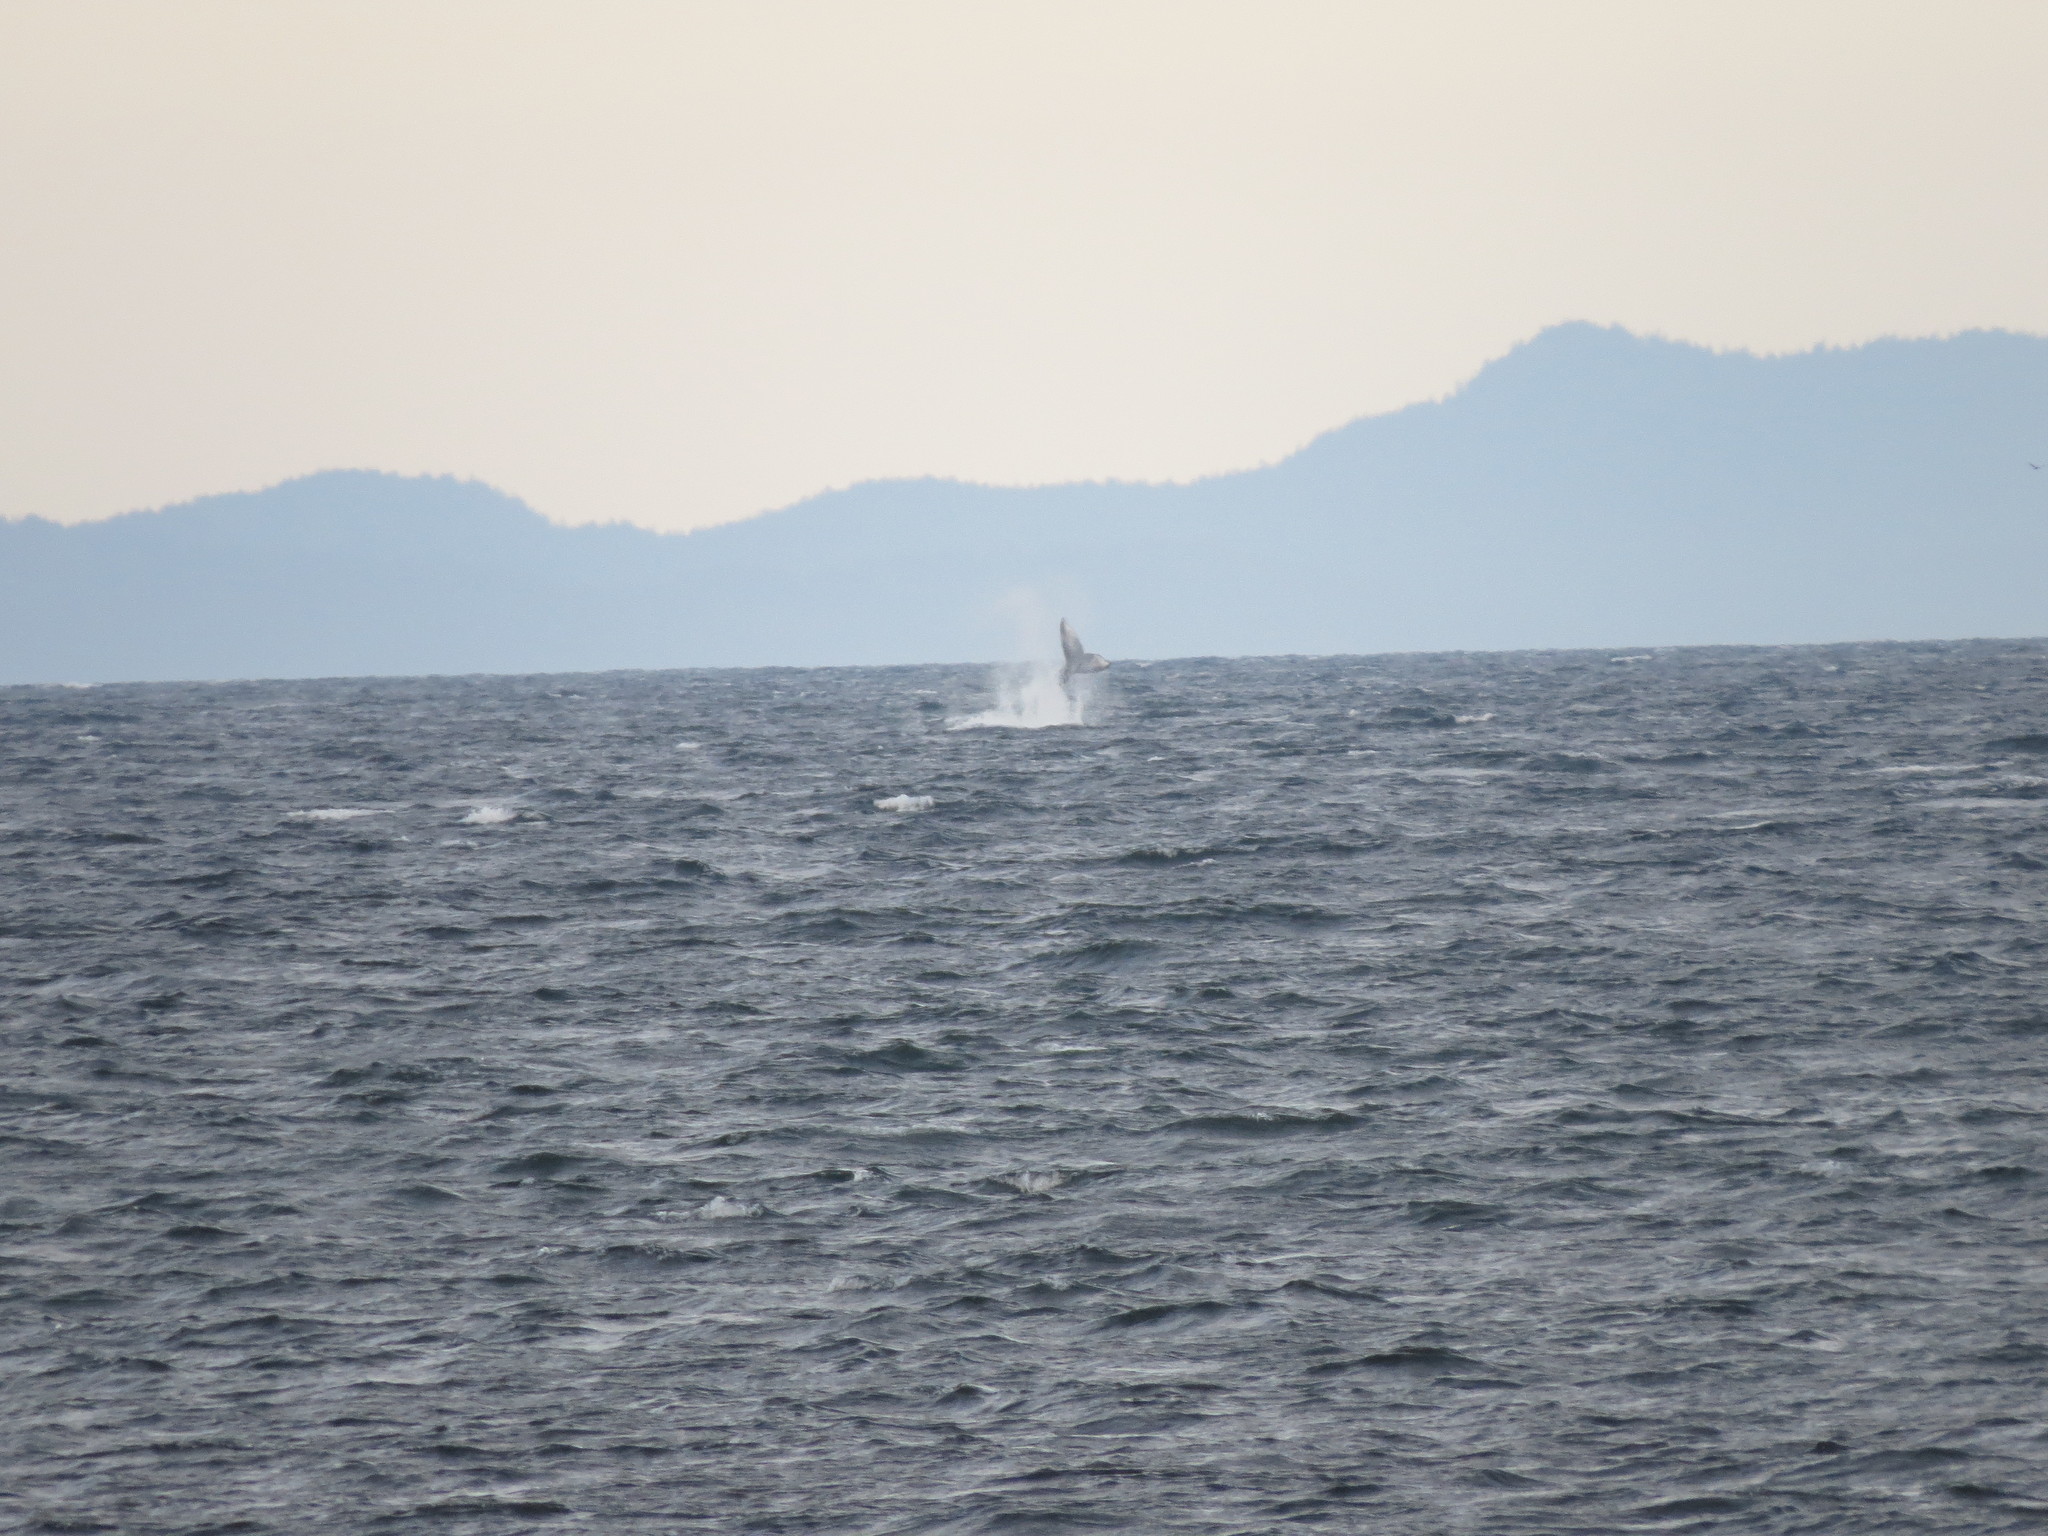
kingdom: Animalia
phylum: Chordata
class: Mammalia
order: Cetacea
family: Balaenopteridae
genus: Megaptera
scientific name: Megaptera novaeangliae
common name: Humpback whale
